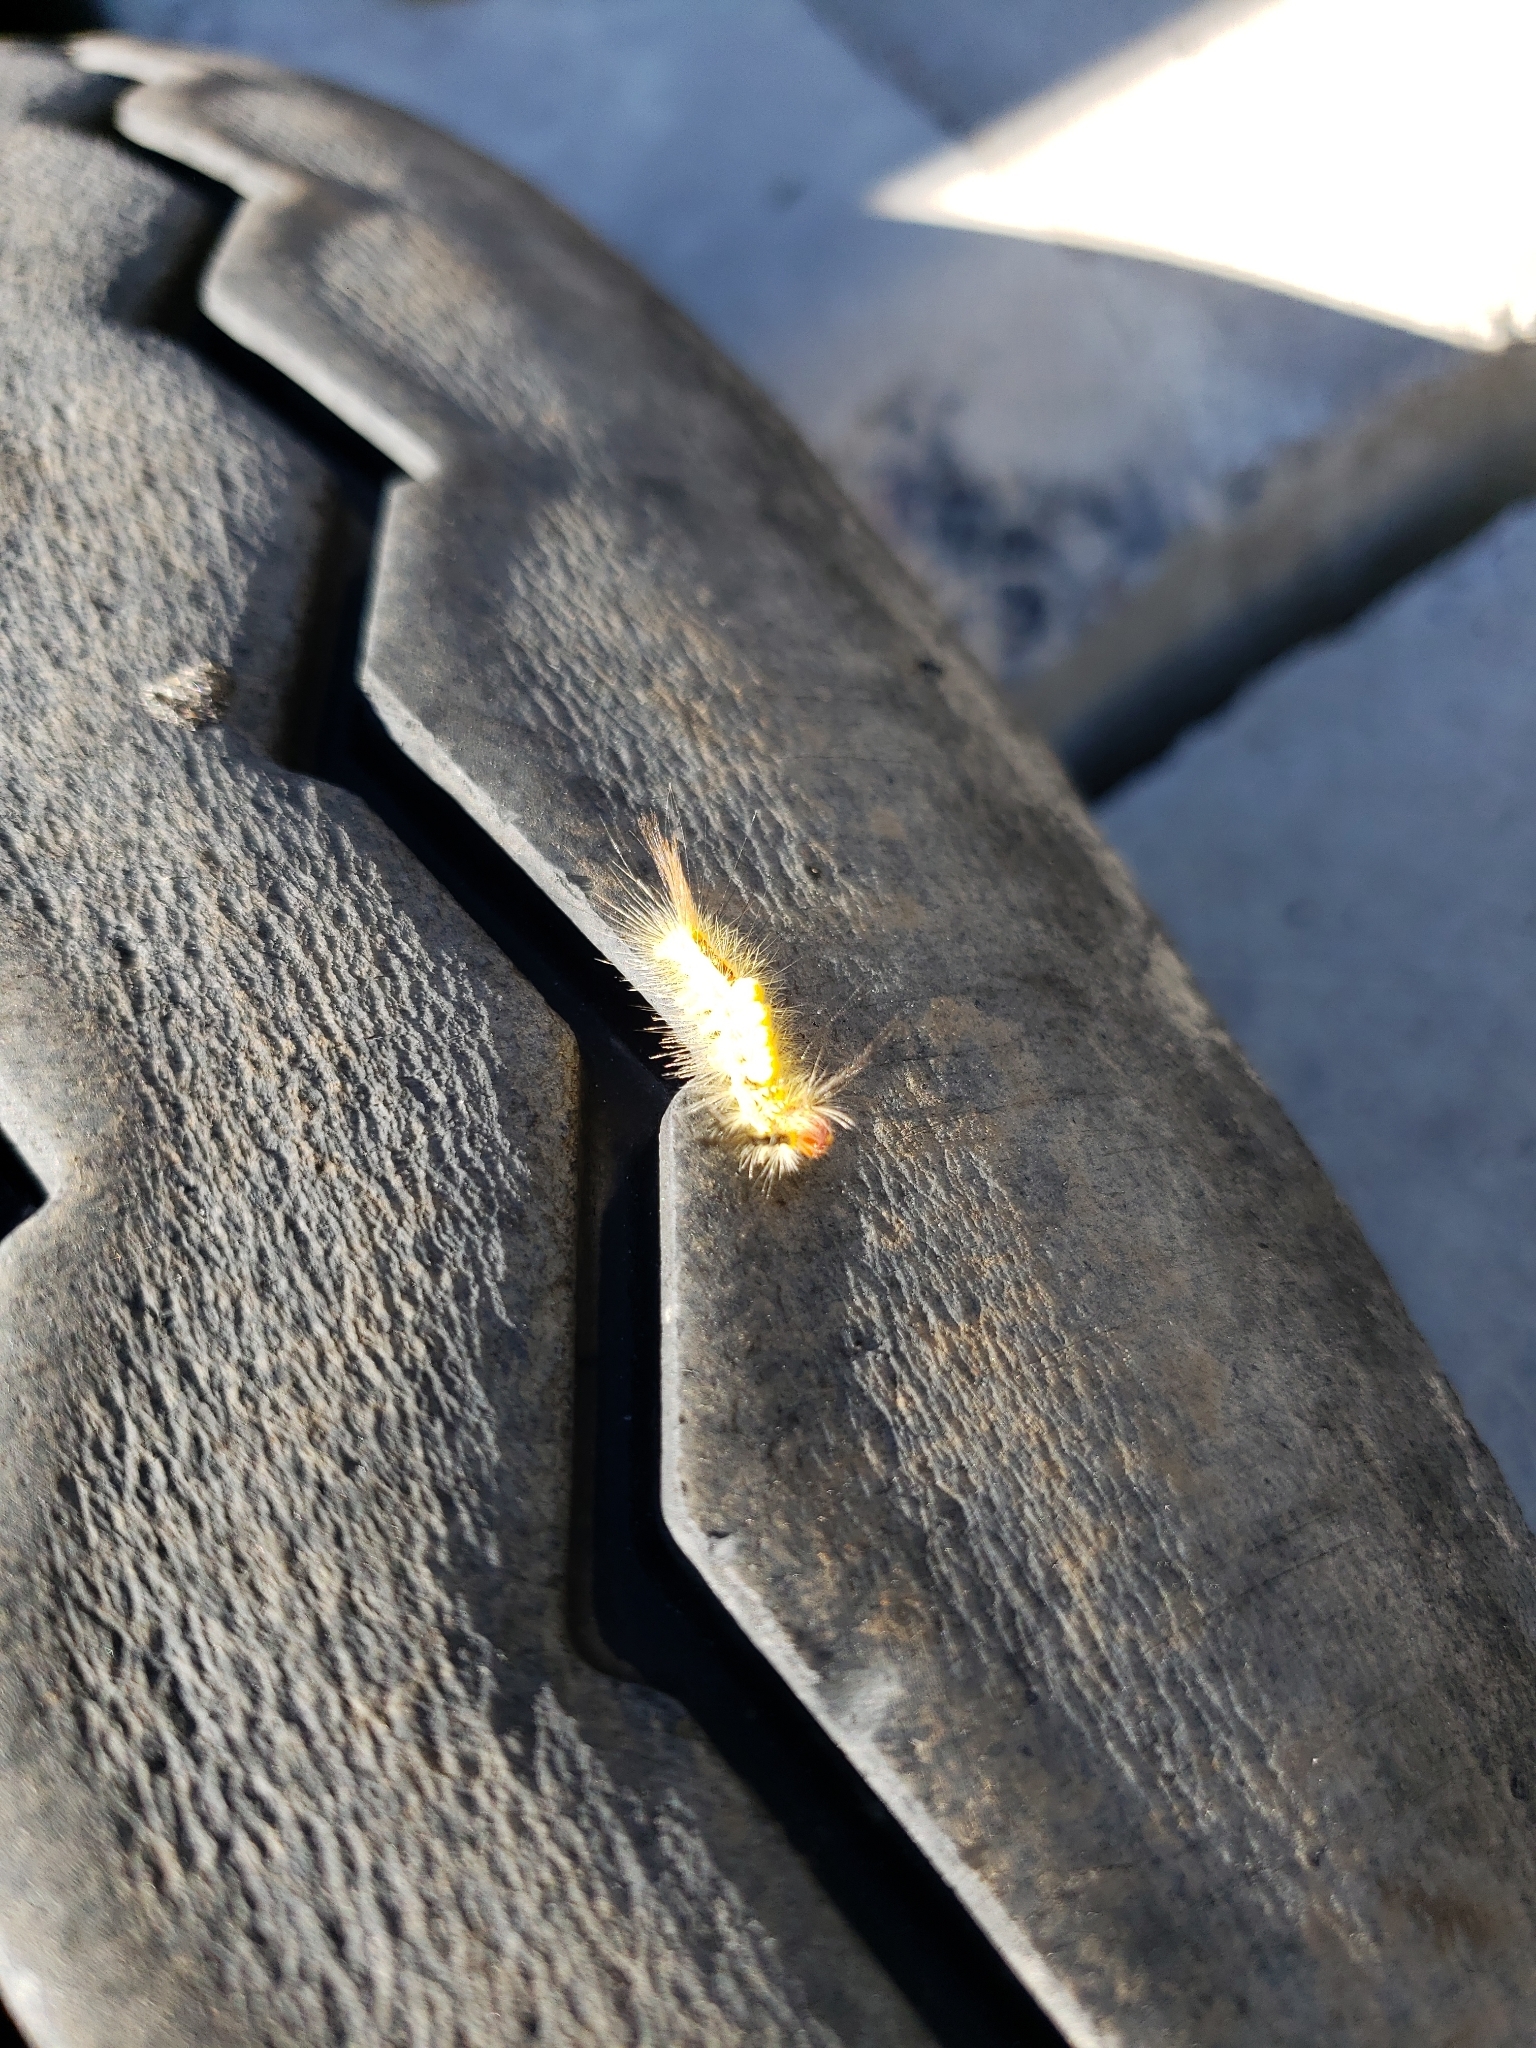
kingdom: Animalia
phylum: Arthropoda
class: Insecta
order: Lepidoptera
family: Erebidae
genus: Orgyia
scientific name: Orgyia leucostigma
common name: White-marked tussock moth
